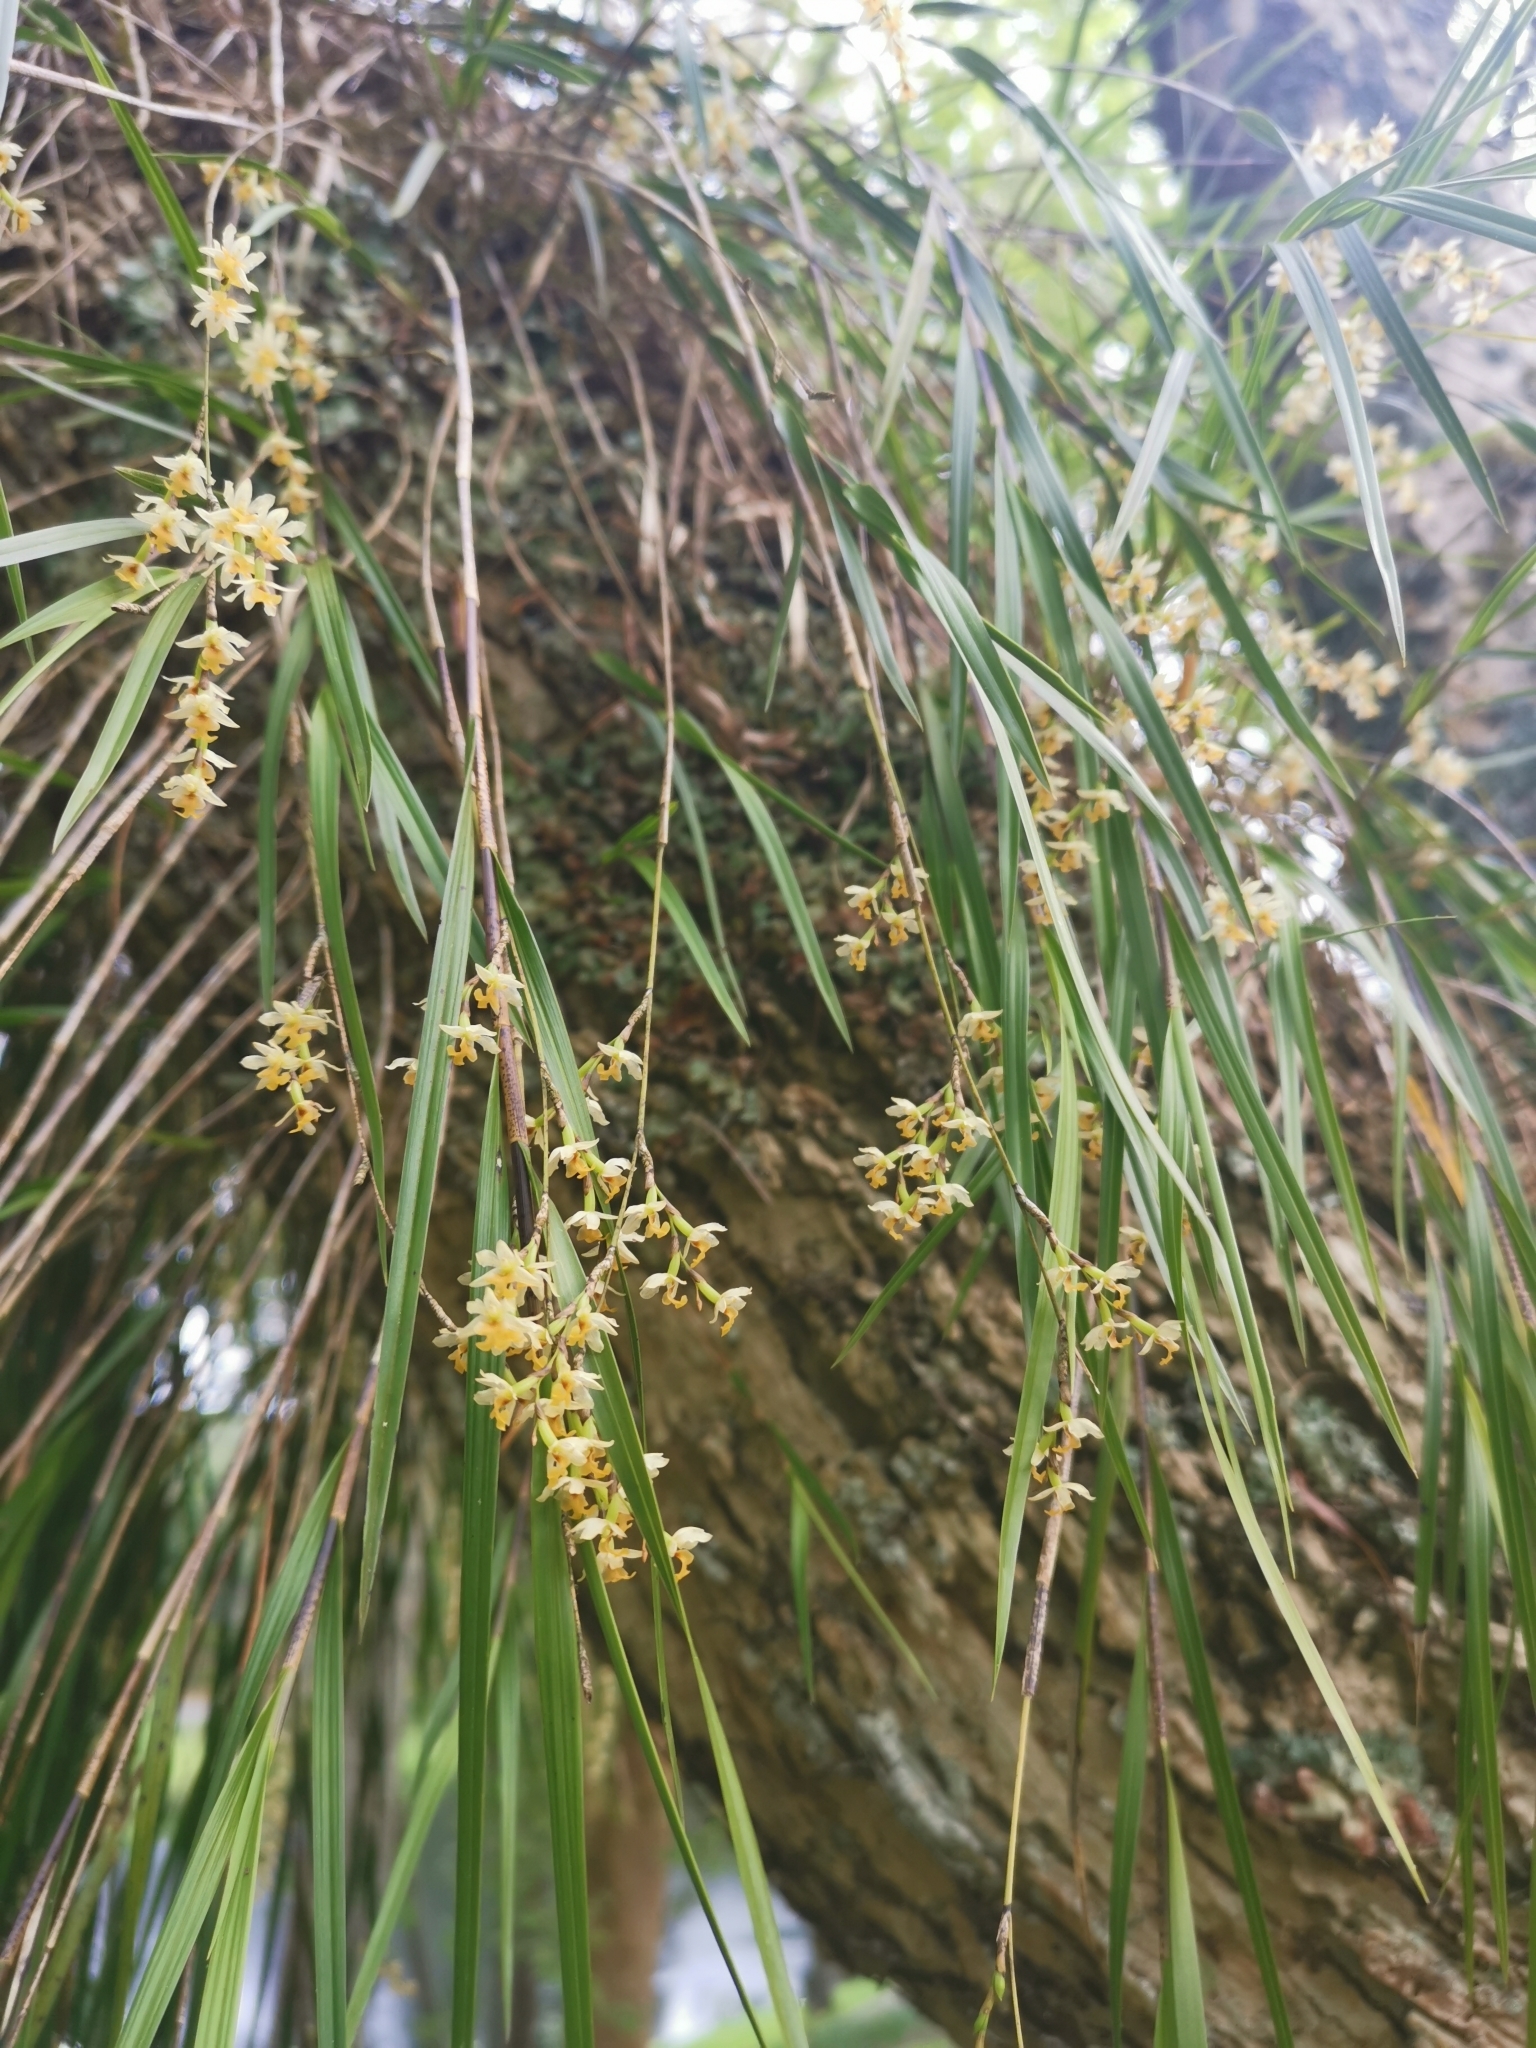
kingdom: Plantae
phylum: Tracheophyta
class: Liliopsida
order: Asparagales
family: Orchidaceae
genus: Earina
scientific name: Earina mucronata
